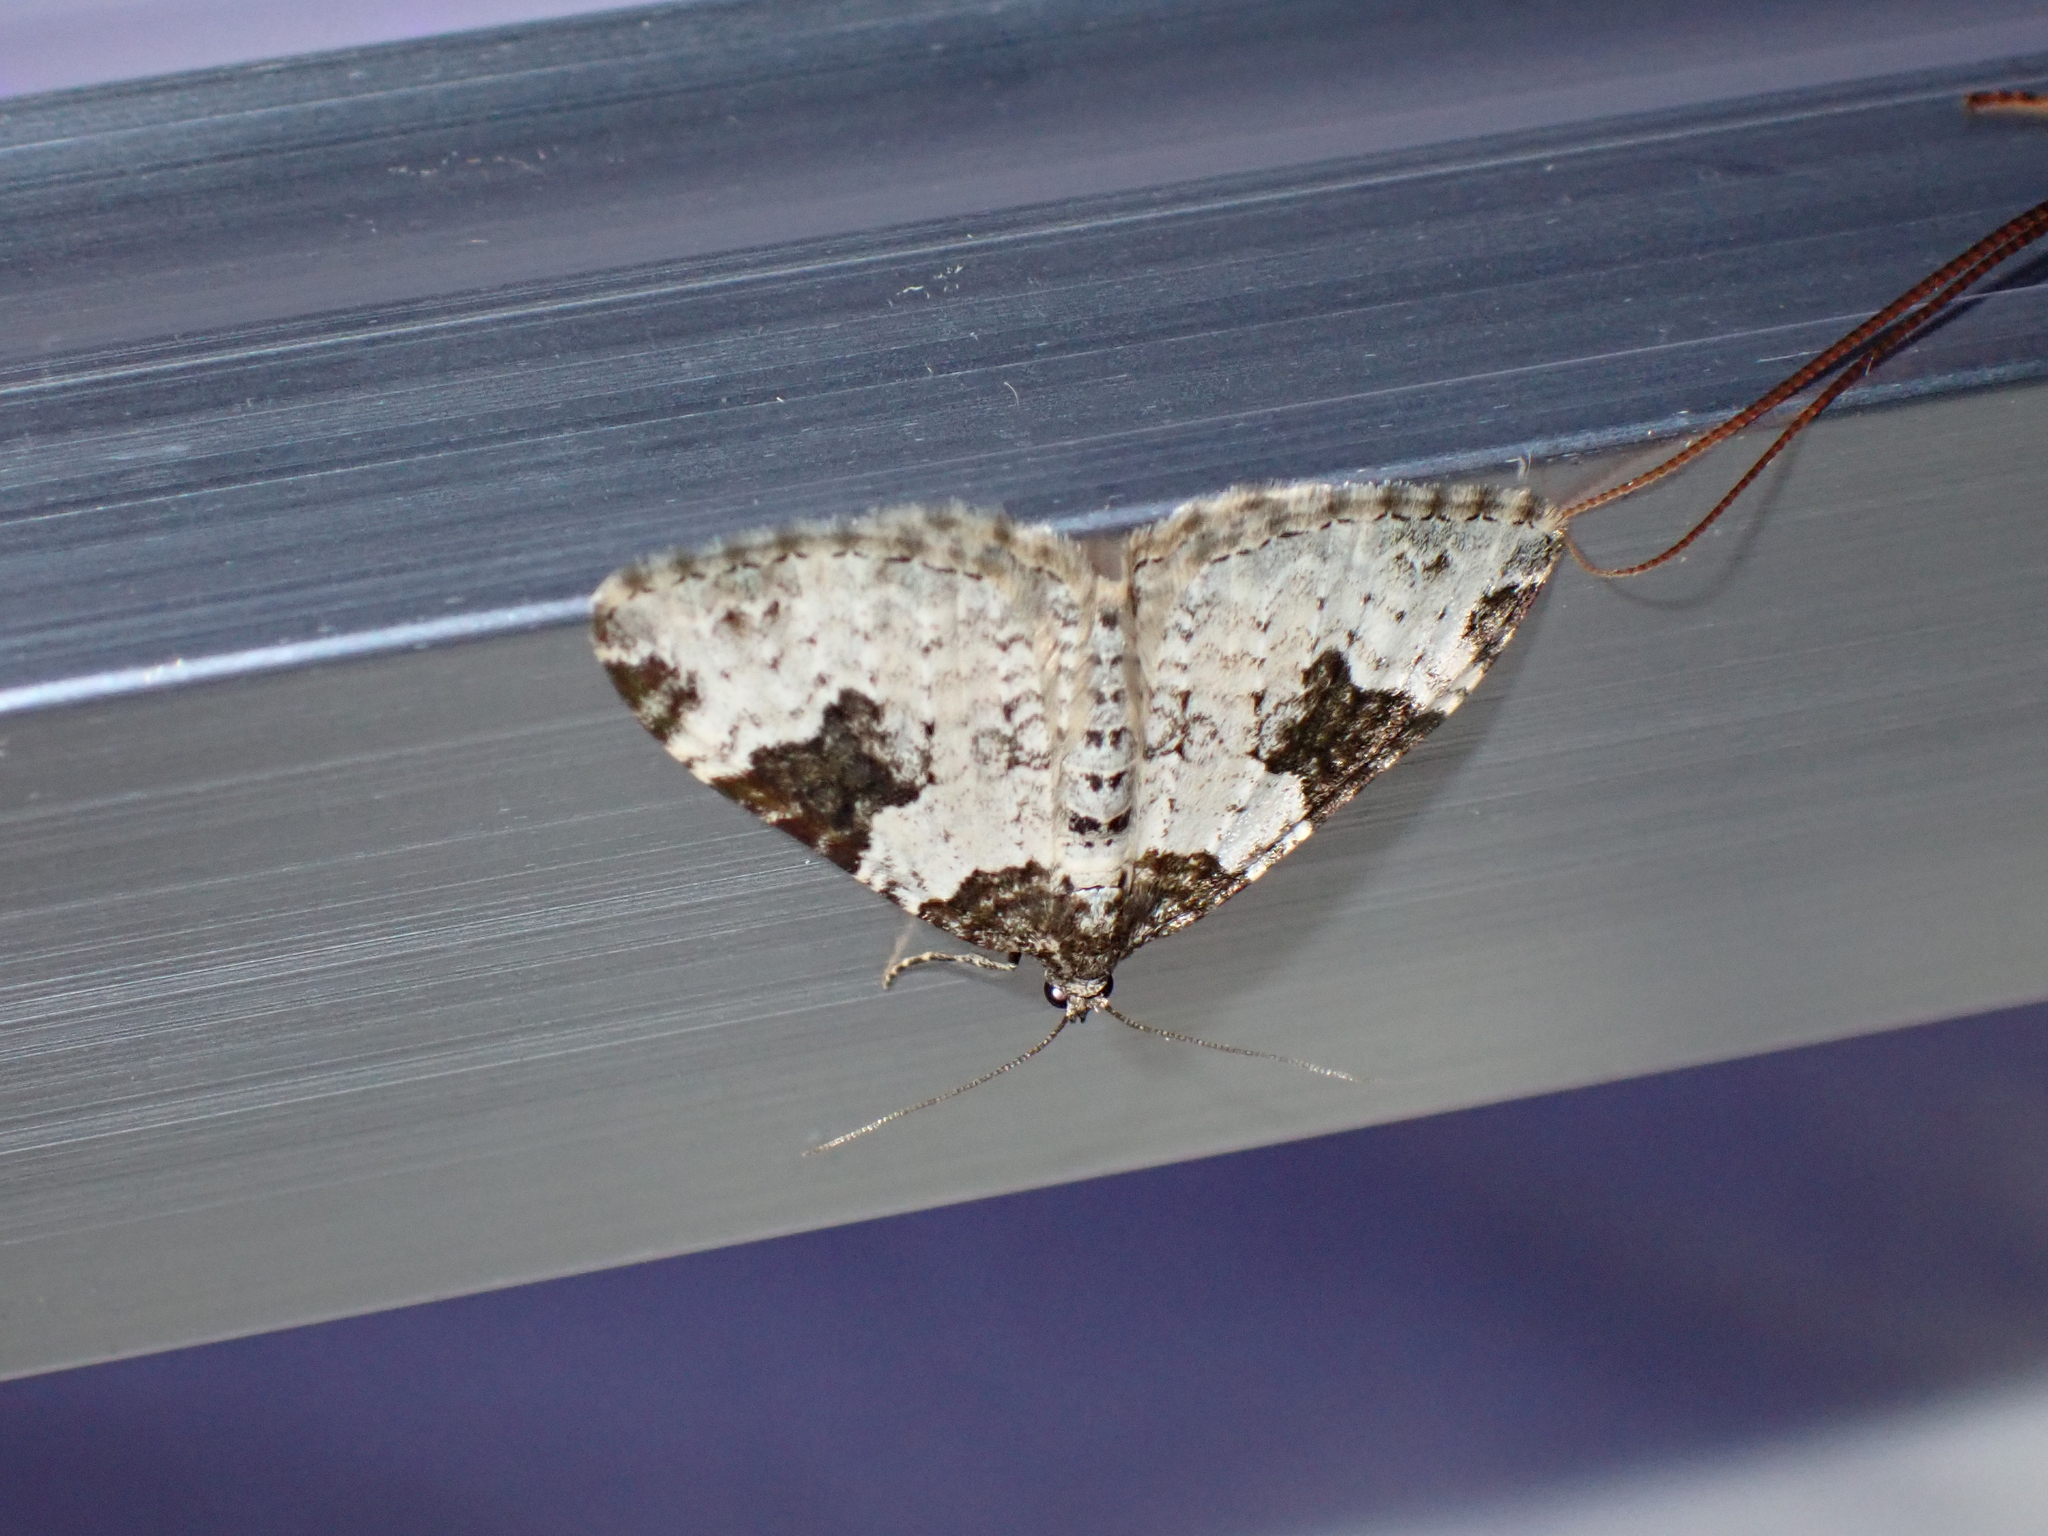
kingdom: Animalia
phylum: Arthropoda
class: Insecta
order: Lepidoptera
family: Geometridae
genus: Xanthorhoe
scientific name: Xanthorhoe fluctuata
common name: Garden carpet
